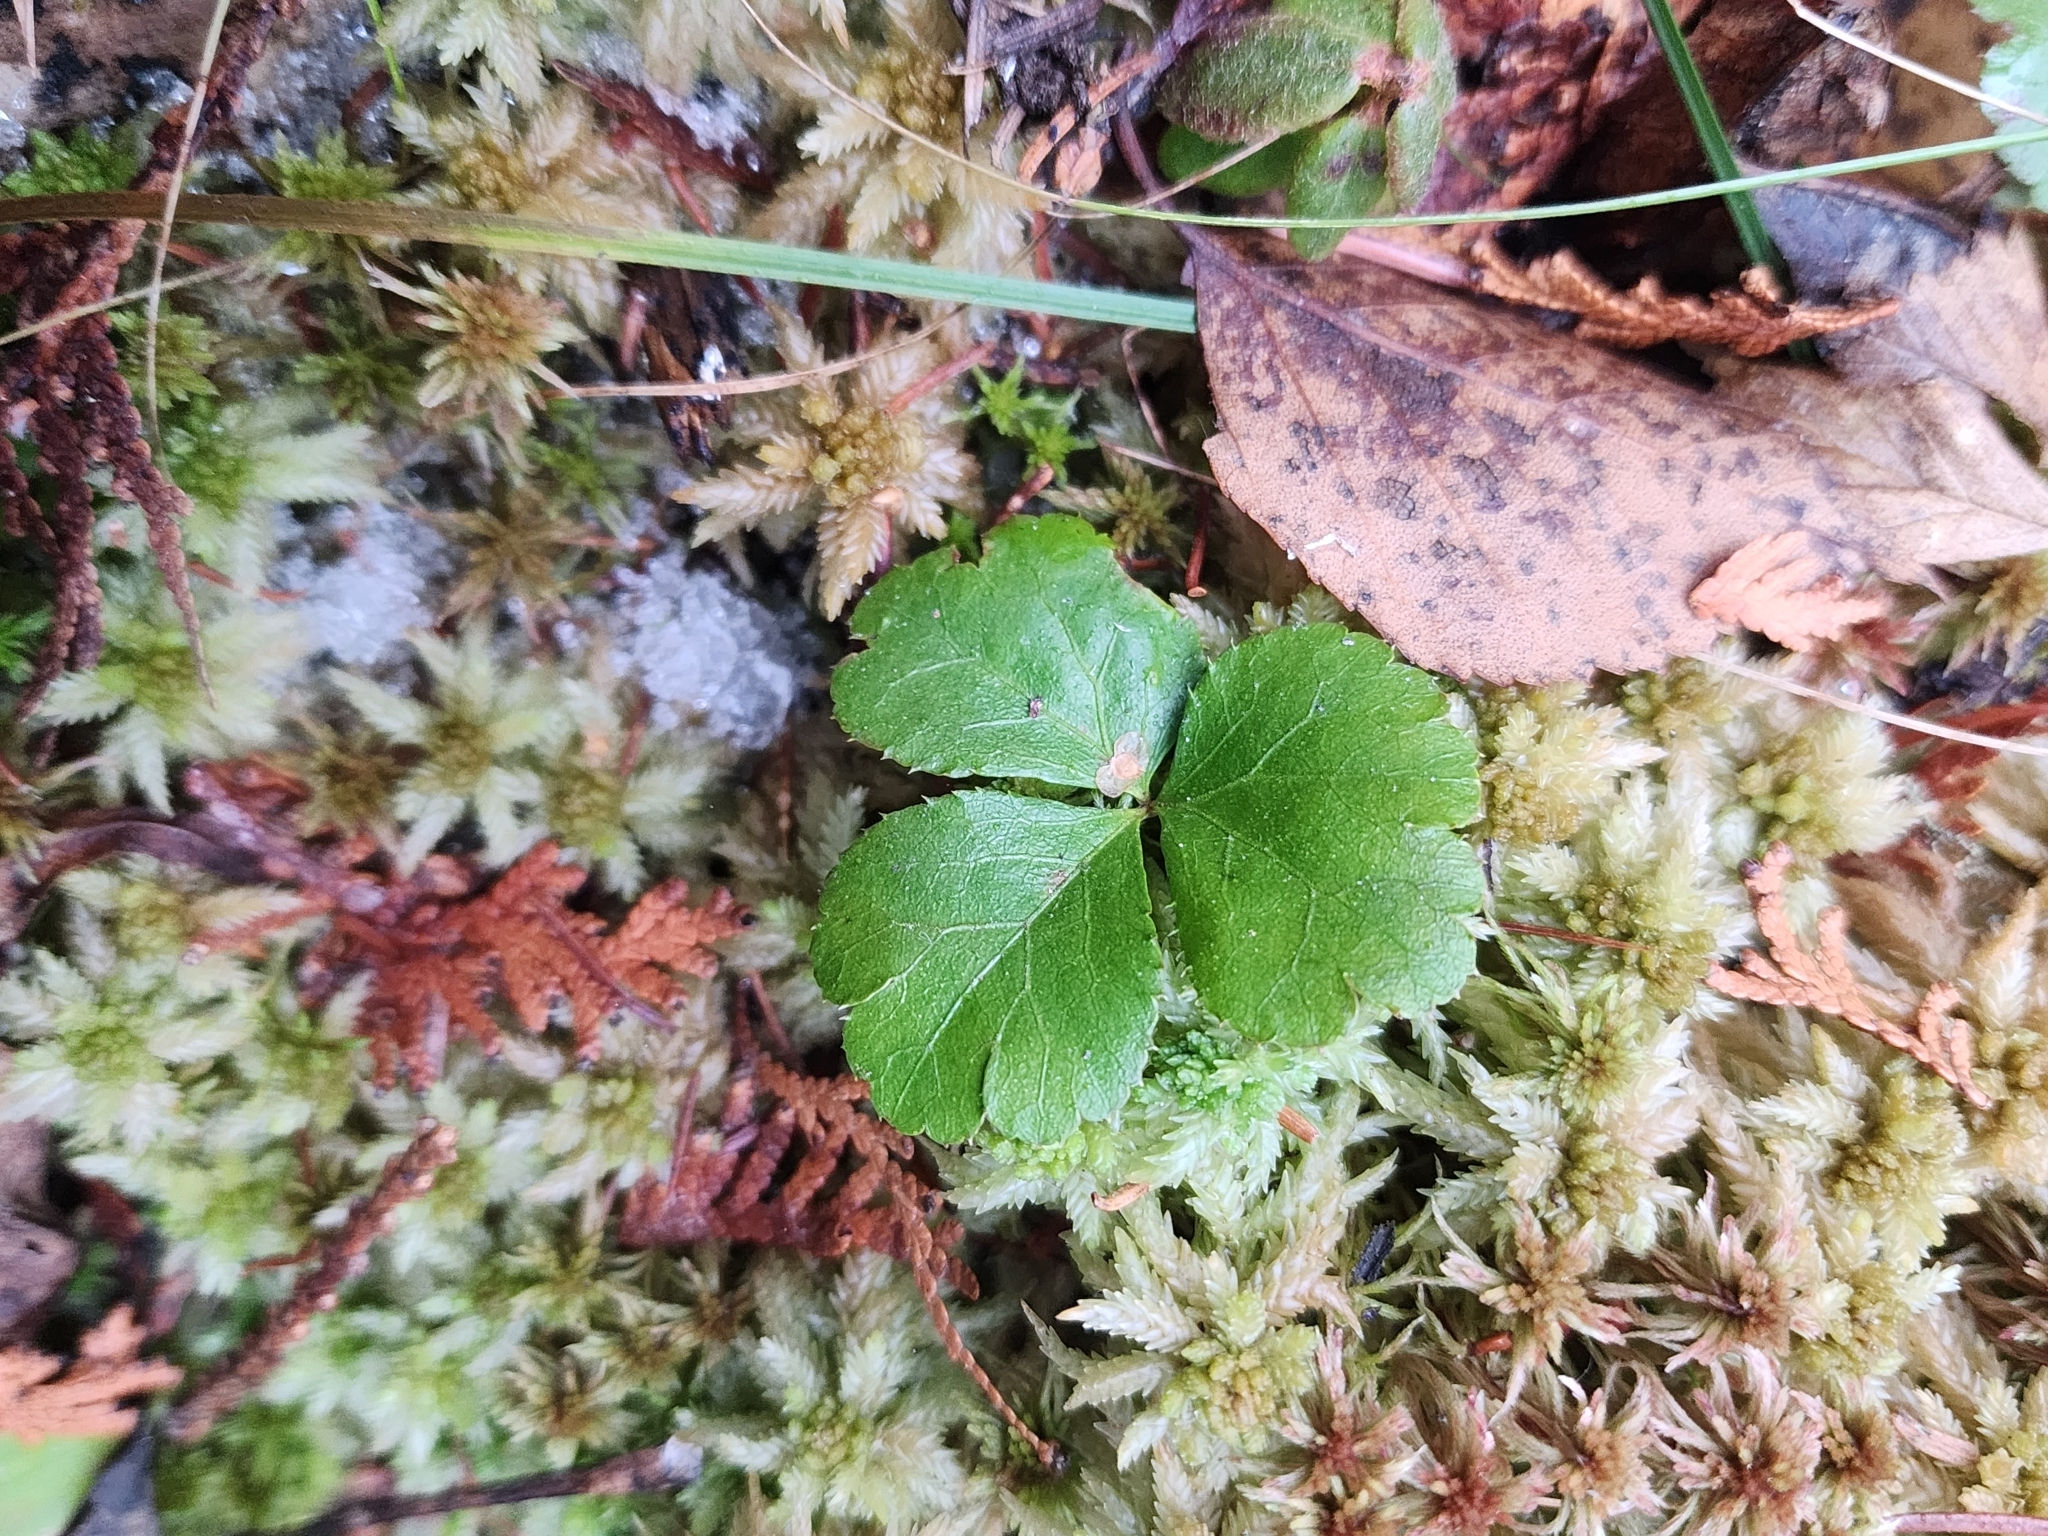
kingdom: Plantae
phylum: Tracheophyta
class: Magnoliopsida
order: Ranunculales
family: Ranunculaceae
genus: Coptis
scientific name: Coptis trifolia
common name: Canker-root
